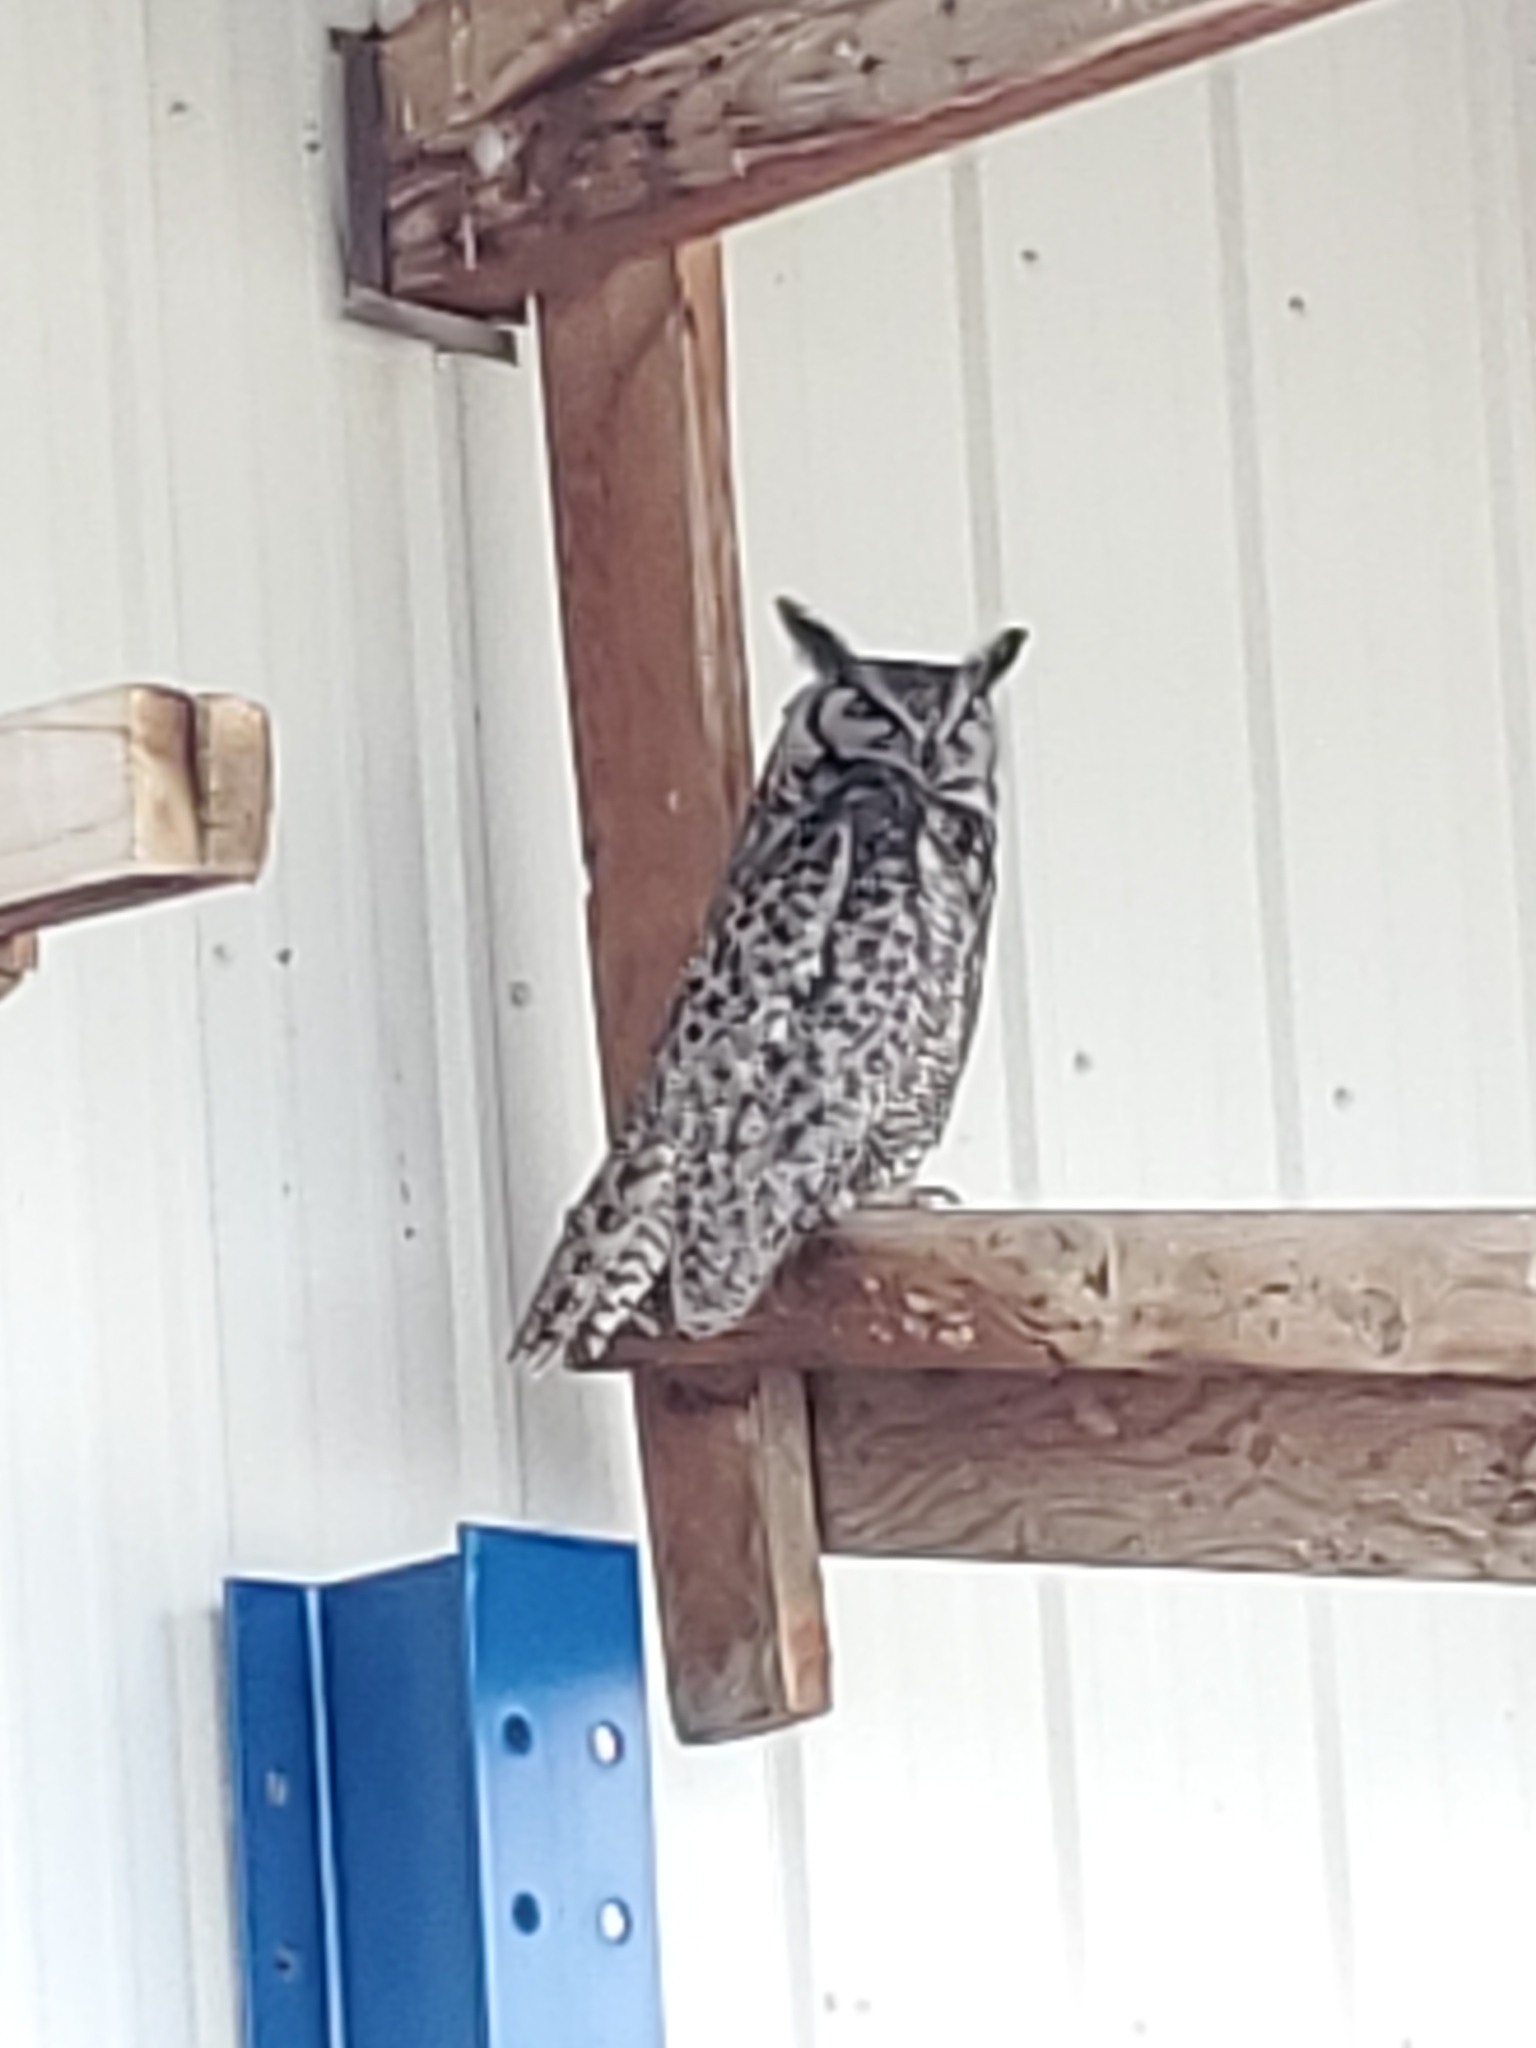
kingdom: Animalia
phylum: Chordata
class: Aves
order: Strigiformes
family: Strigidae
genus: Bubo
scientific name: Bubo virginianus
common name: Great horned owl
